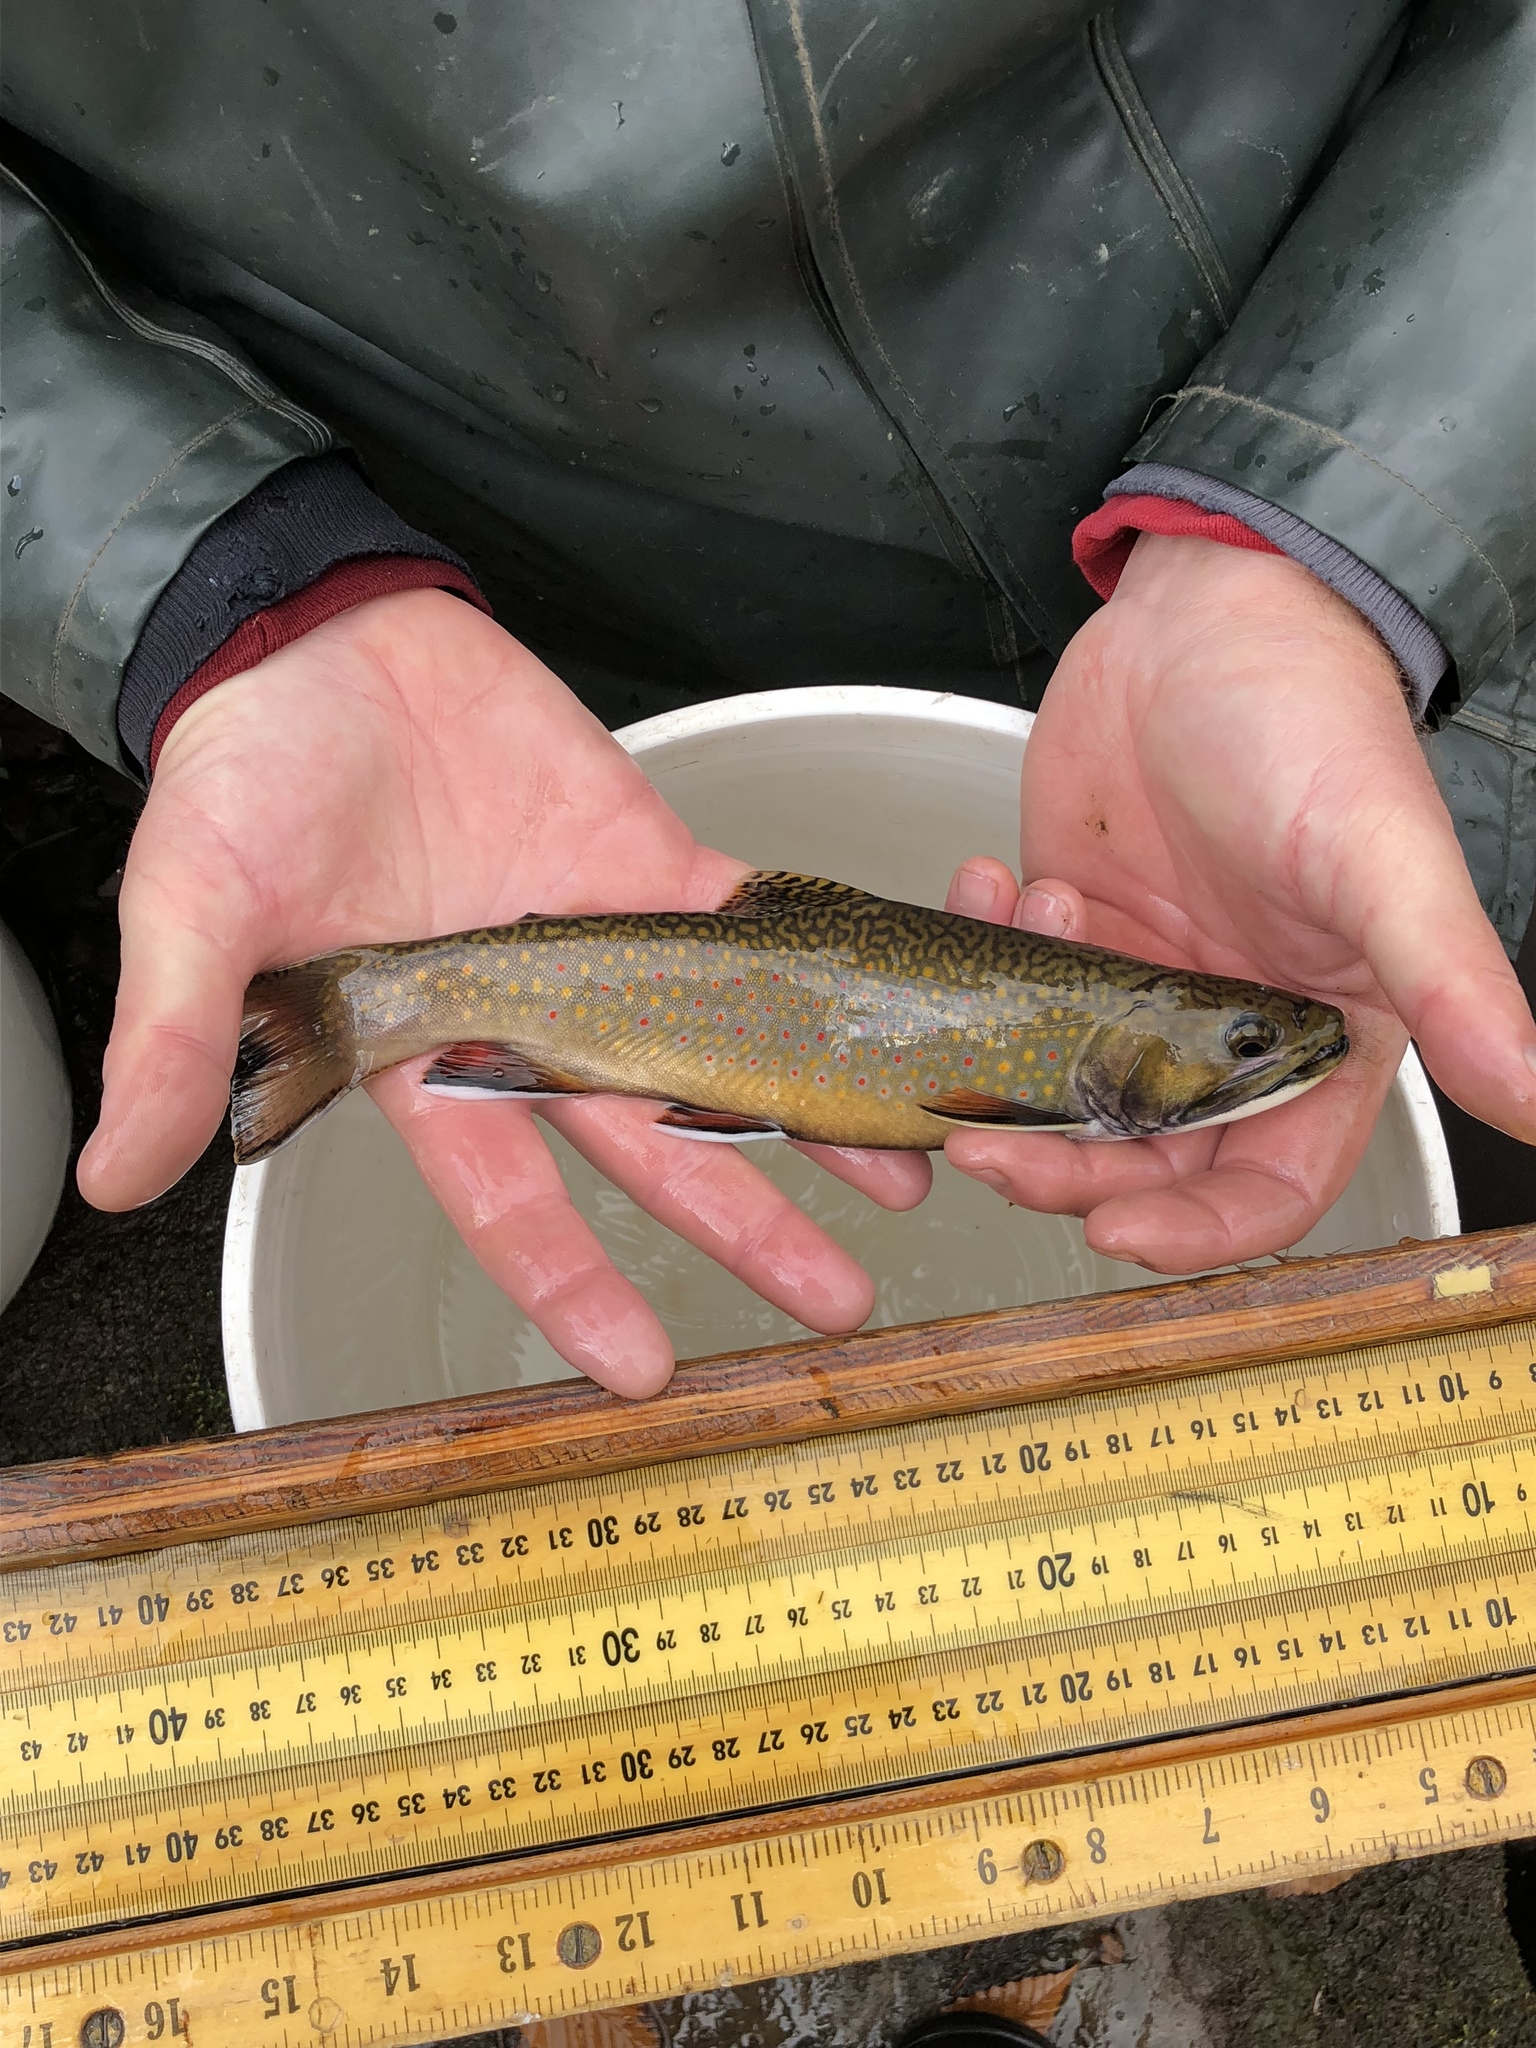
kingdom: Animalia
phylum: Chordata
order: Salmoniformes
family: Salmonidae
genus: Salvelinus
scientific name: Salvelinus fontinalis
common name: Brook trout
